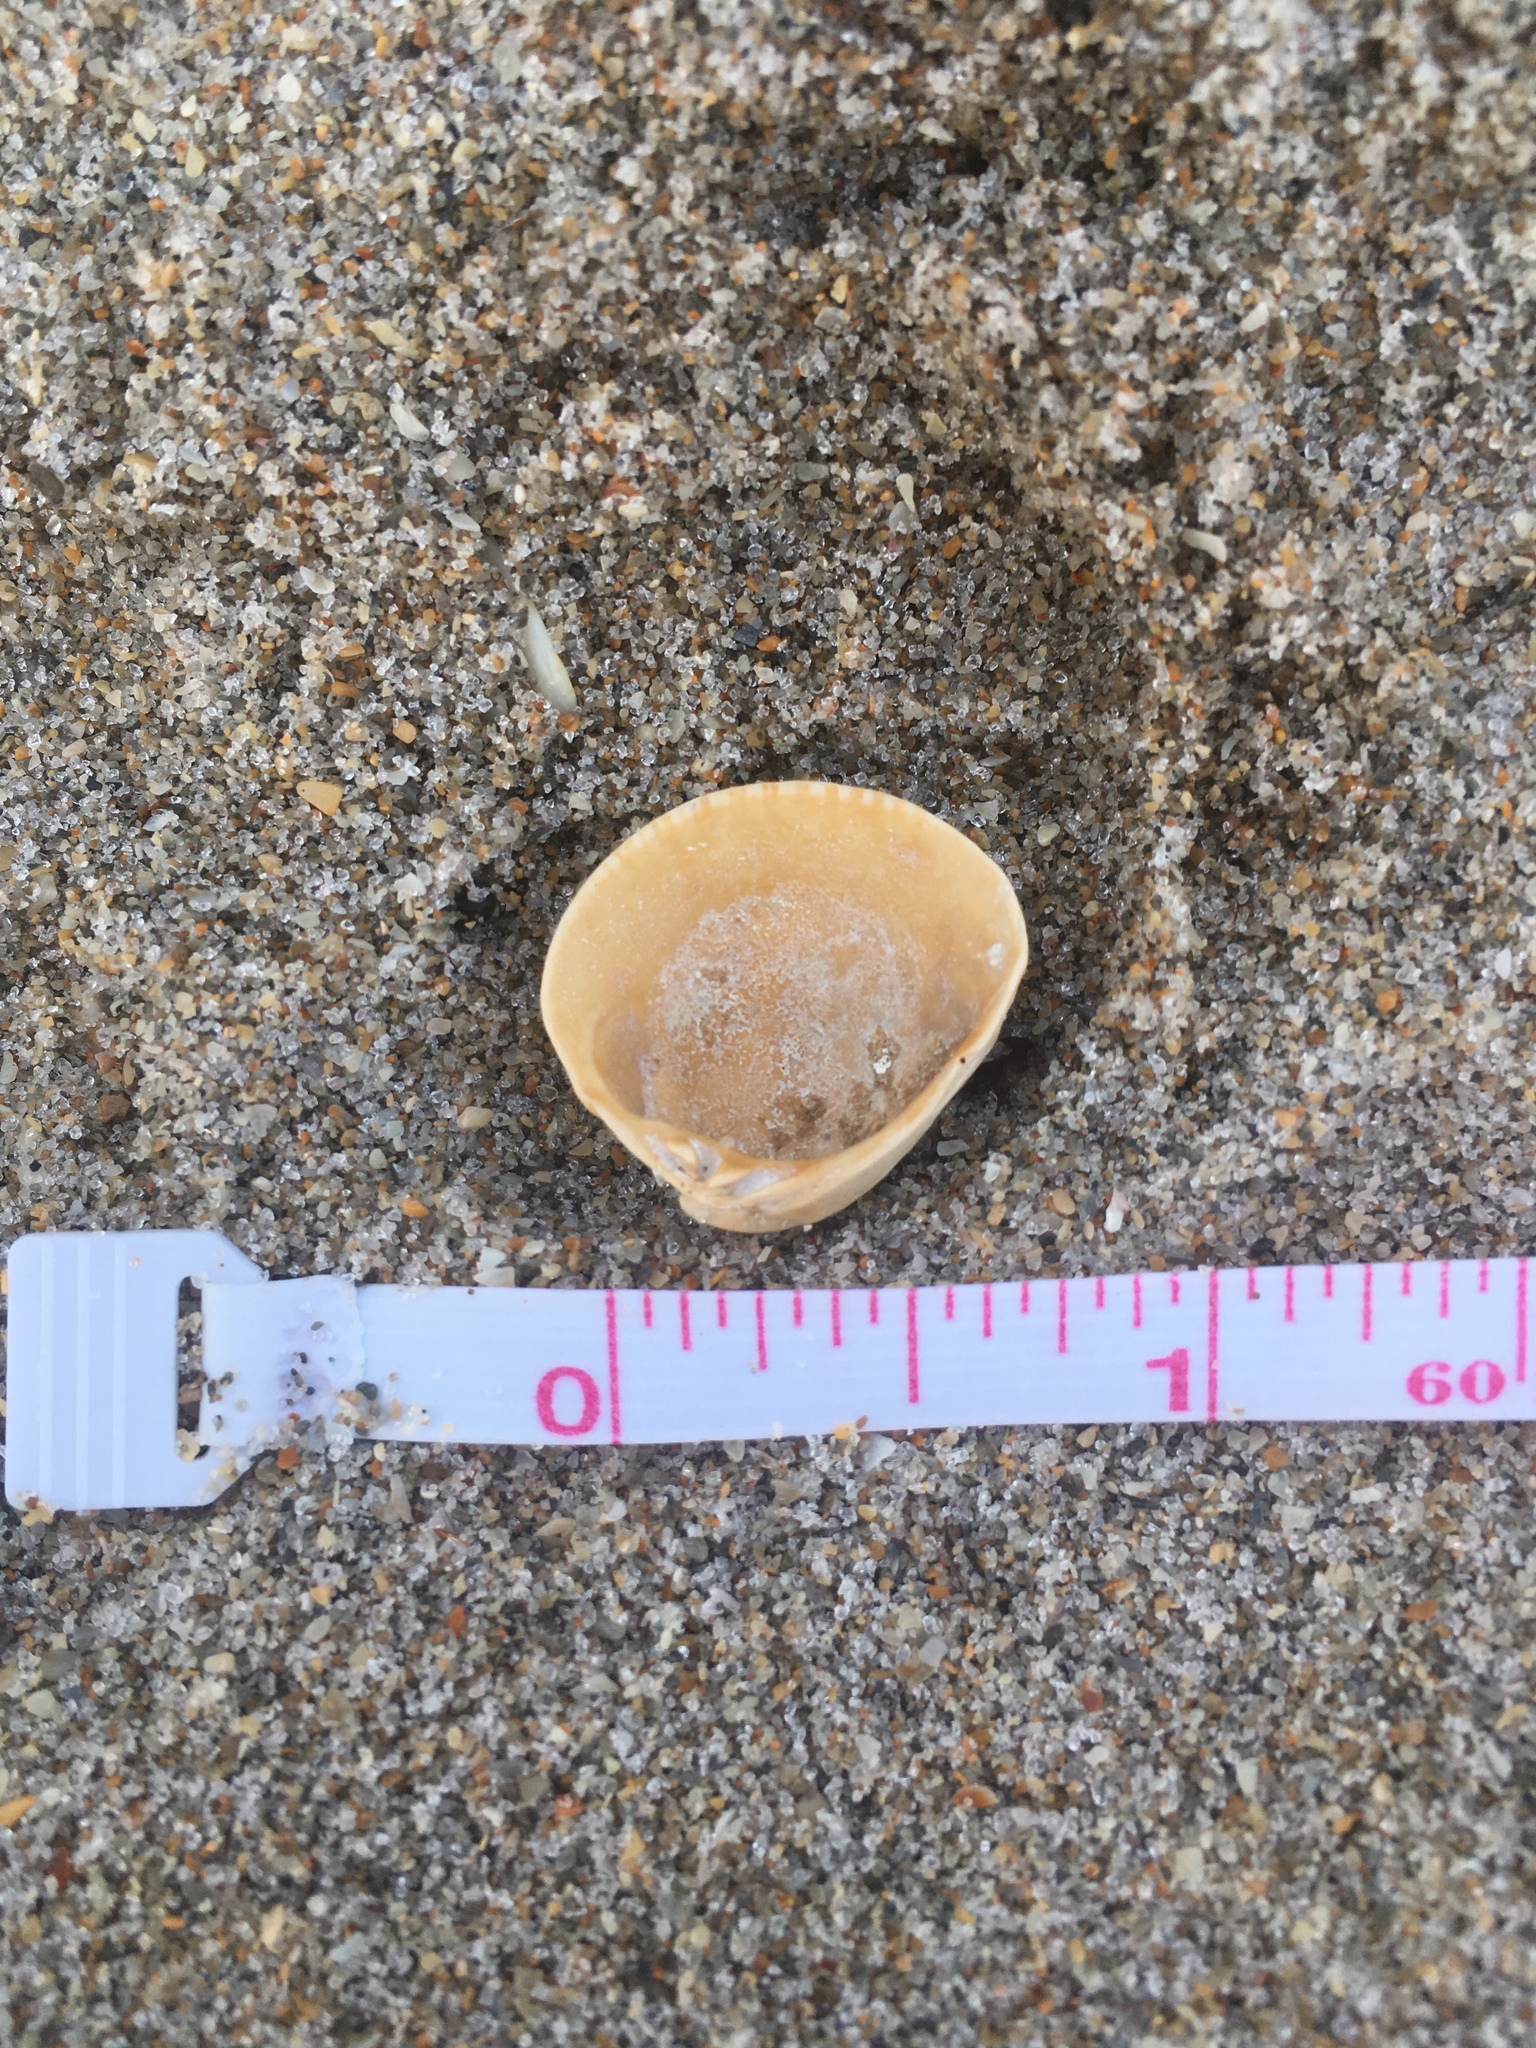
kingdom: Animalia
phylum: Mollusca
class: Bivalvia
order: Venerida
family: Veneridae
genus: Chione
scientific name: Chione elevata
